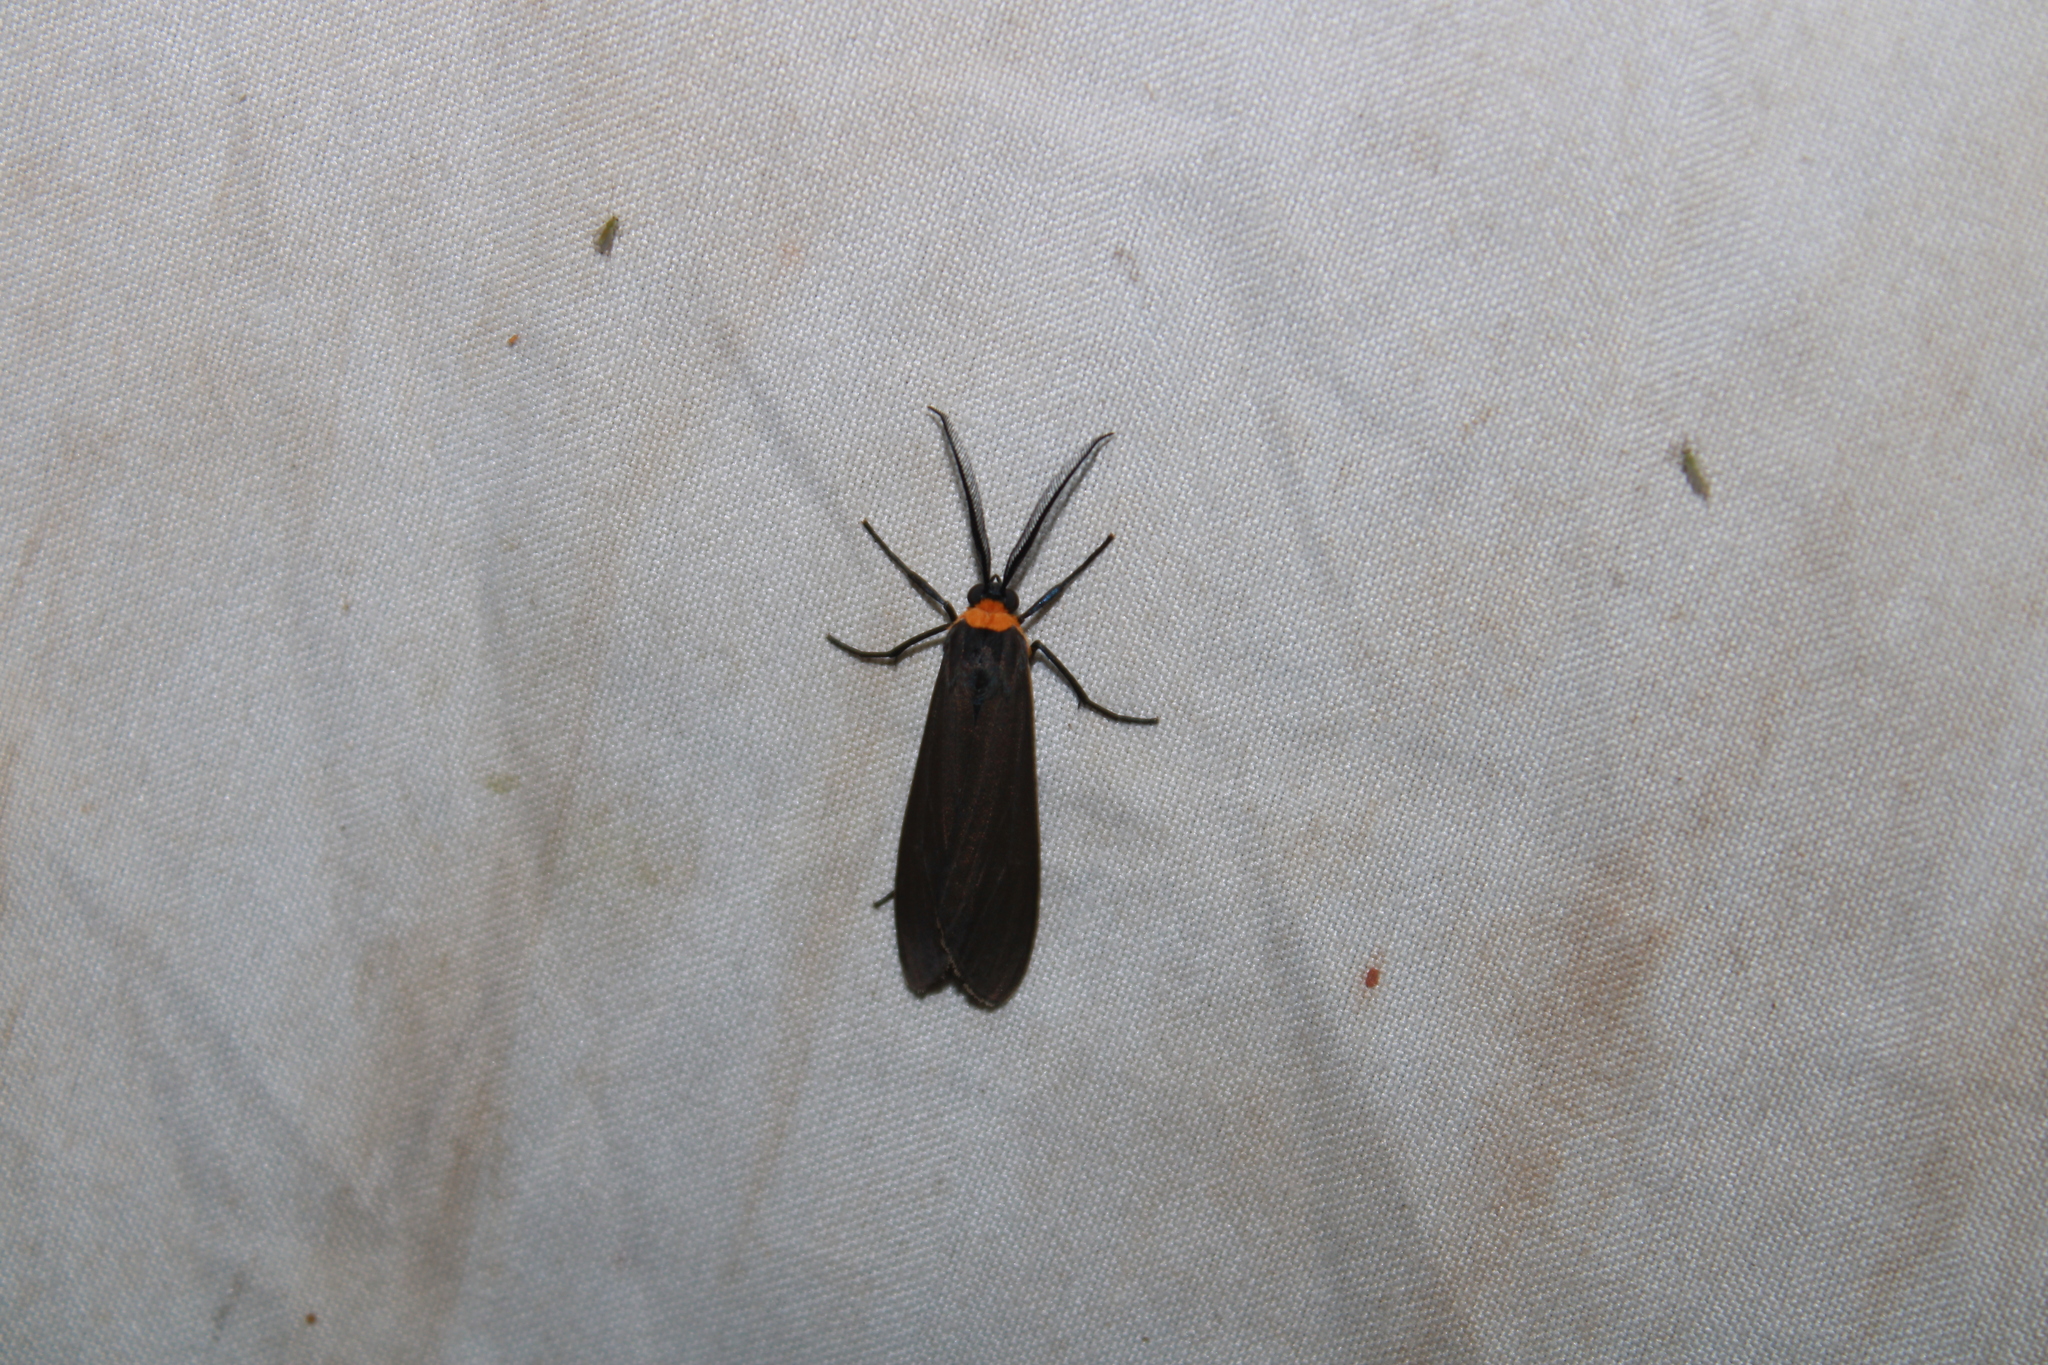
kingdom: Animalia
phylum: Arthropoda
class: Insecta
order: Lepidoptera
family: Erebidae
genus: Cisseps
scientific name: Cisseps fulvicollis
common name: Yellow-collared scape moth
